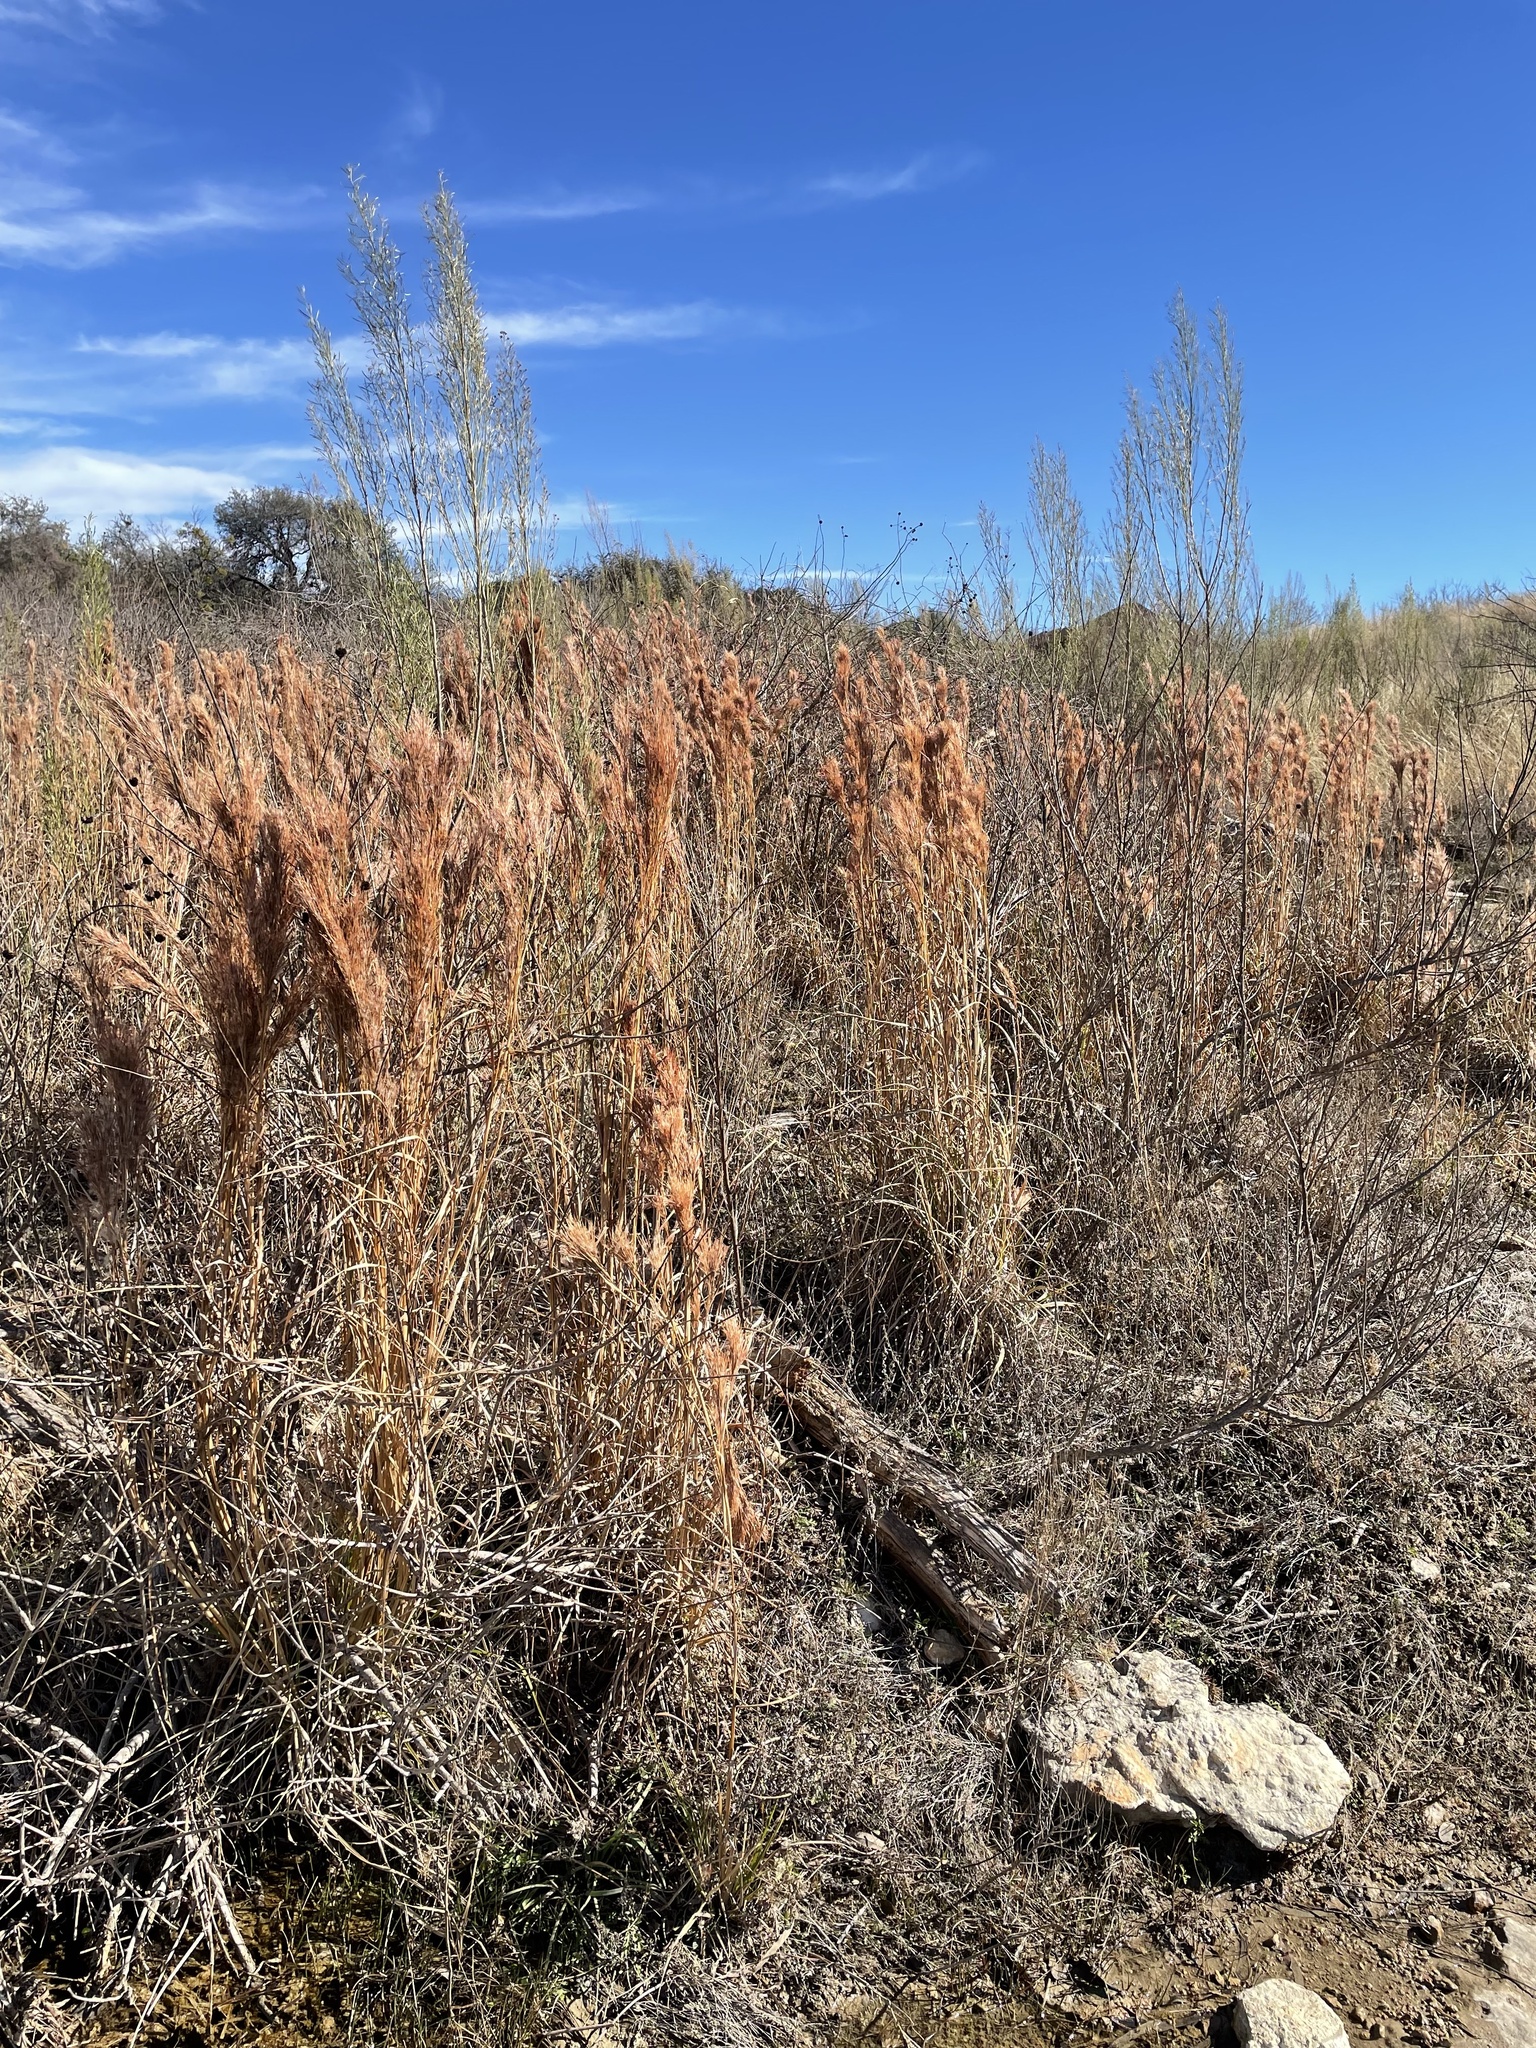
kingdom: Plantae
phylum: Tracheophyta
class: Liliopsida
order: Poales
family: Poaceae
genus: Andropogon
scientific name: Andropogon tenuispatheus
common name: Bushy bluestem
